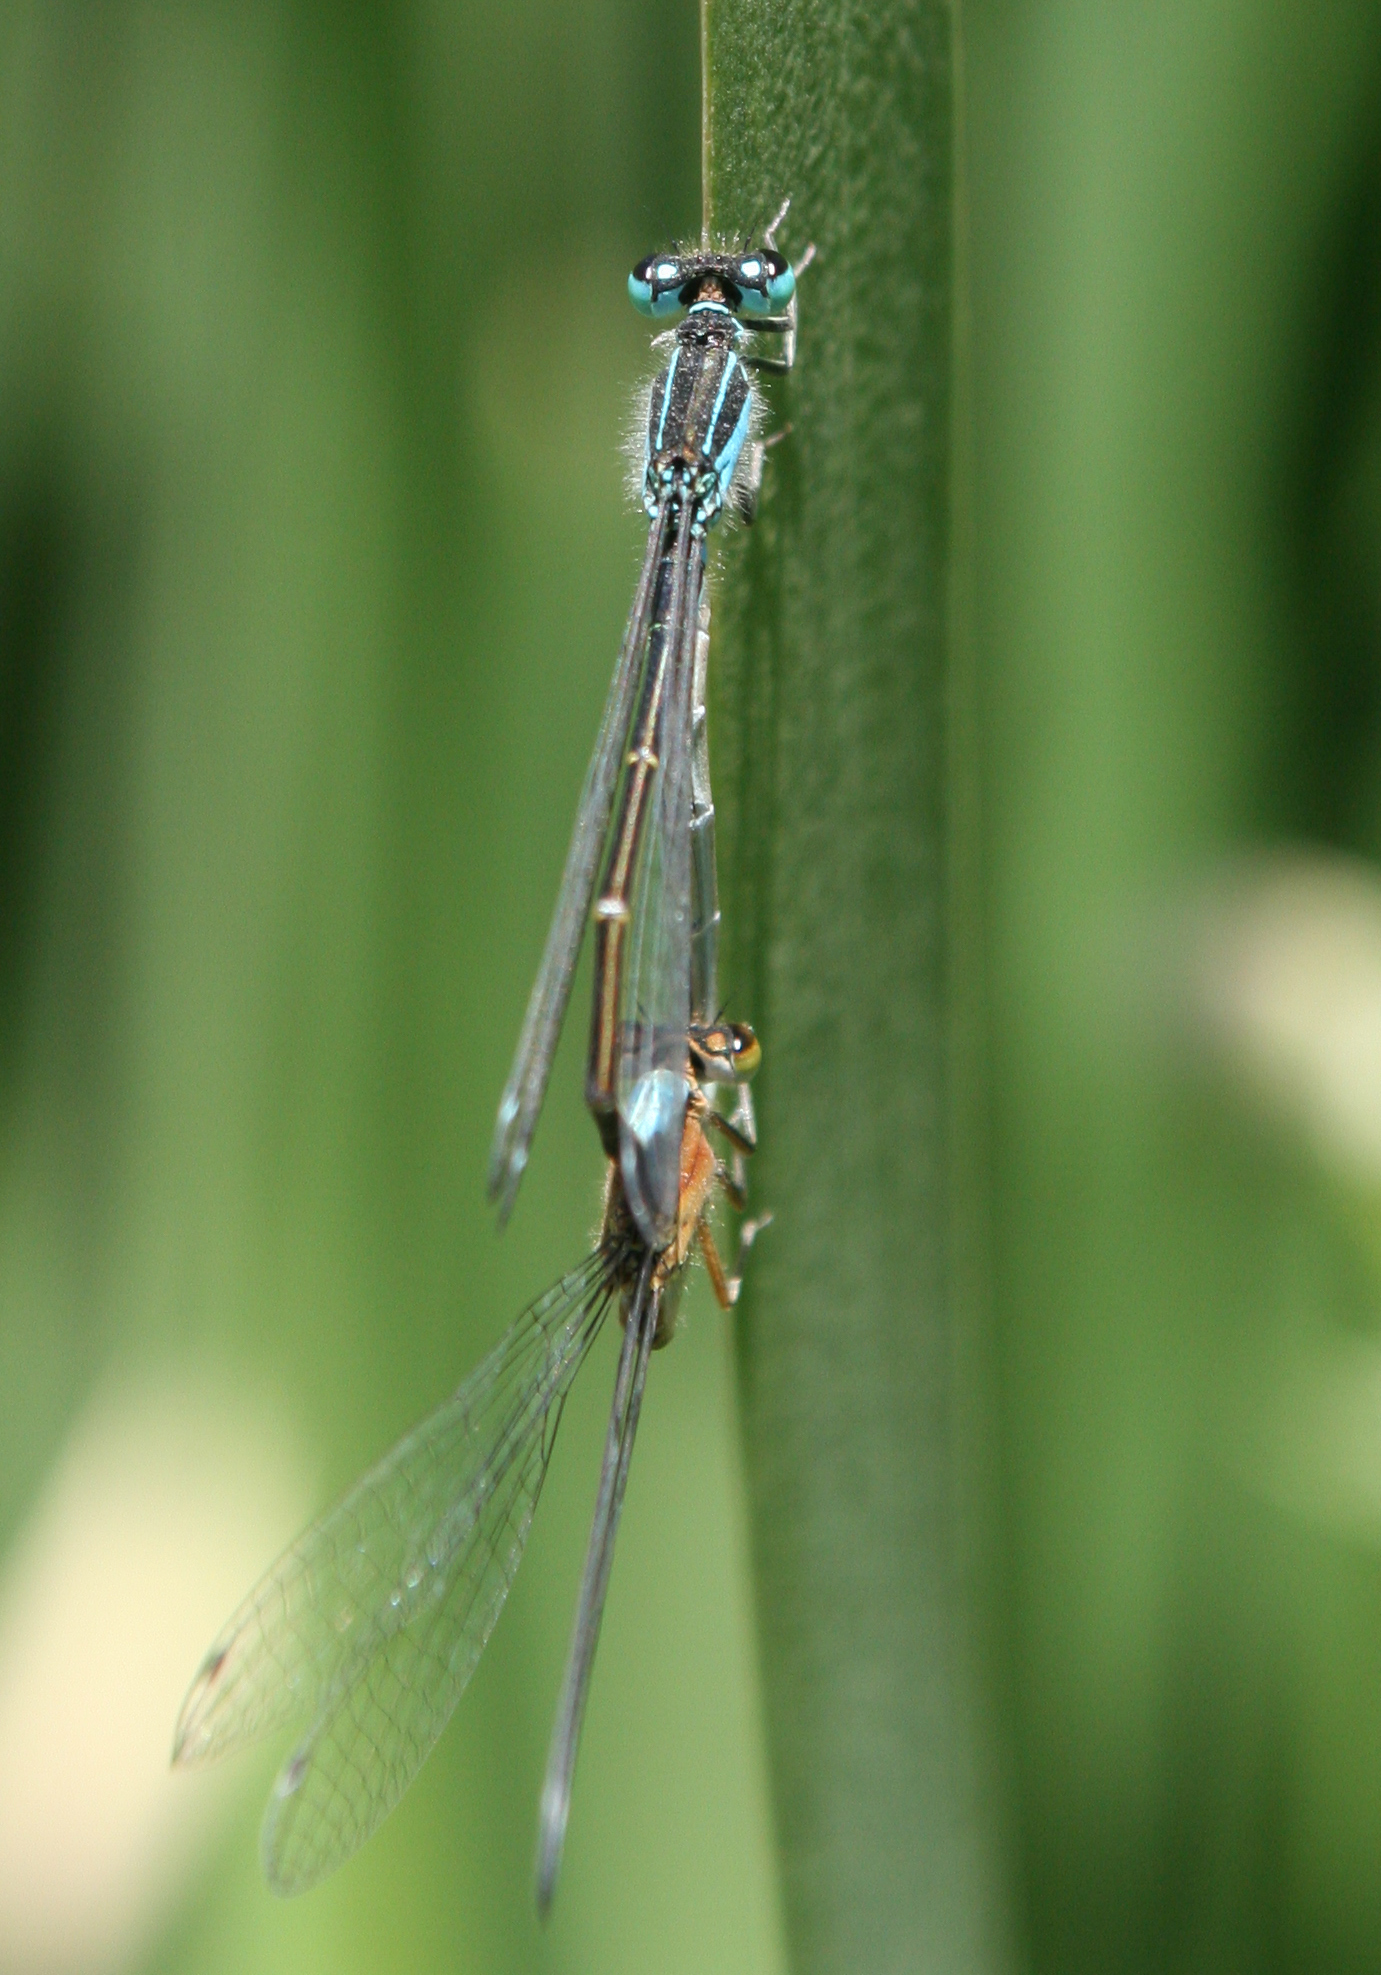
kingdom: Animalia
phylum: Arthropoda
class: Insecta
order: Odonata
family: Coenagrionidae
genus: Ischnura
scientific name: Ischnura elegans
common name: Blue-tailed damselfly
